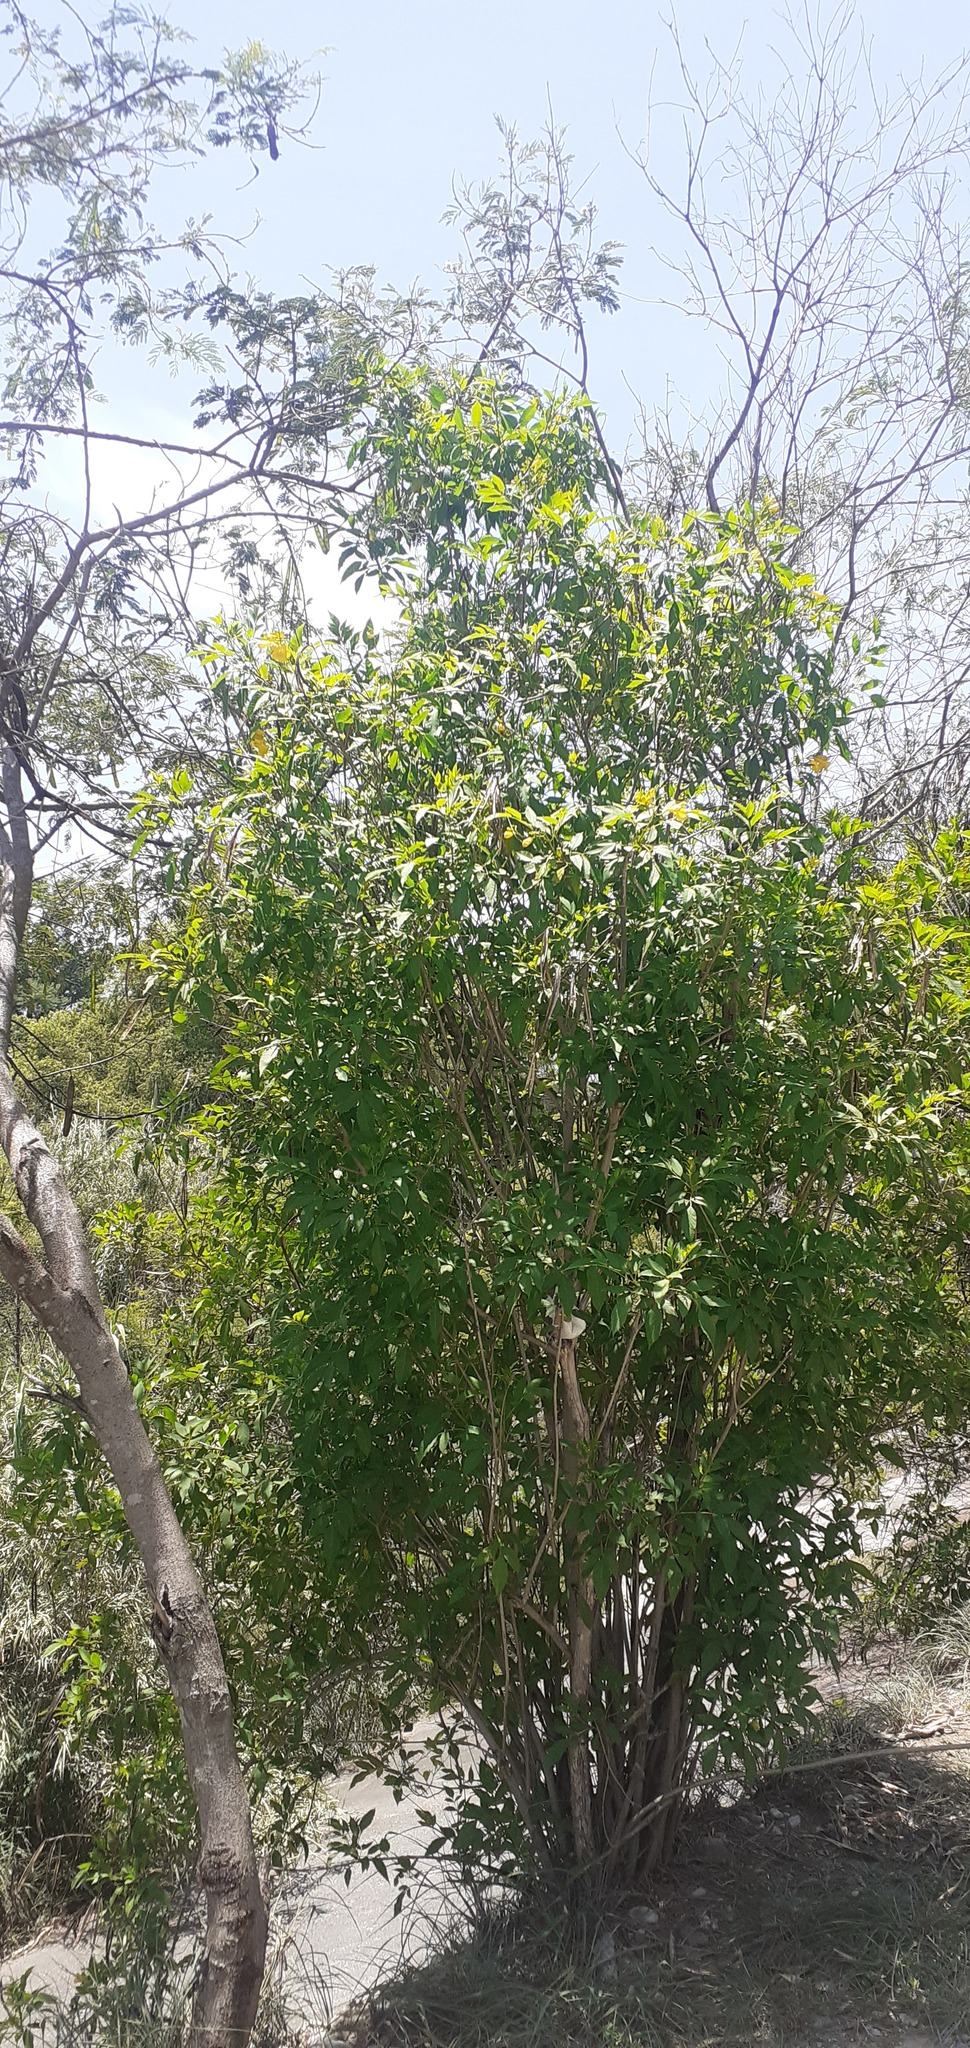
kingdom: Plantae
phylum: Tracheophyta
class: Magnoliopsida
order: Lamiales
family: Bignoniaceae
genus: Tecoma
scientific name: Tecoma stans
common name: Yellow trumpetbush
